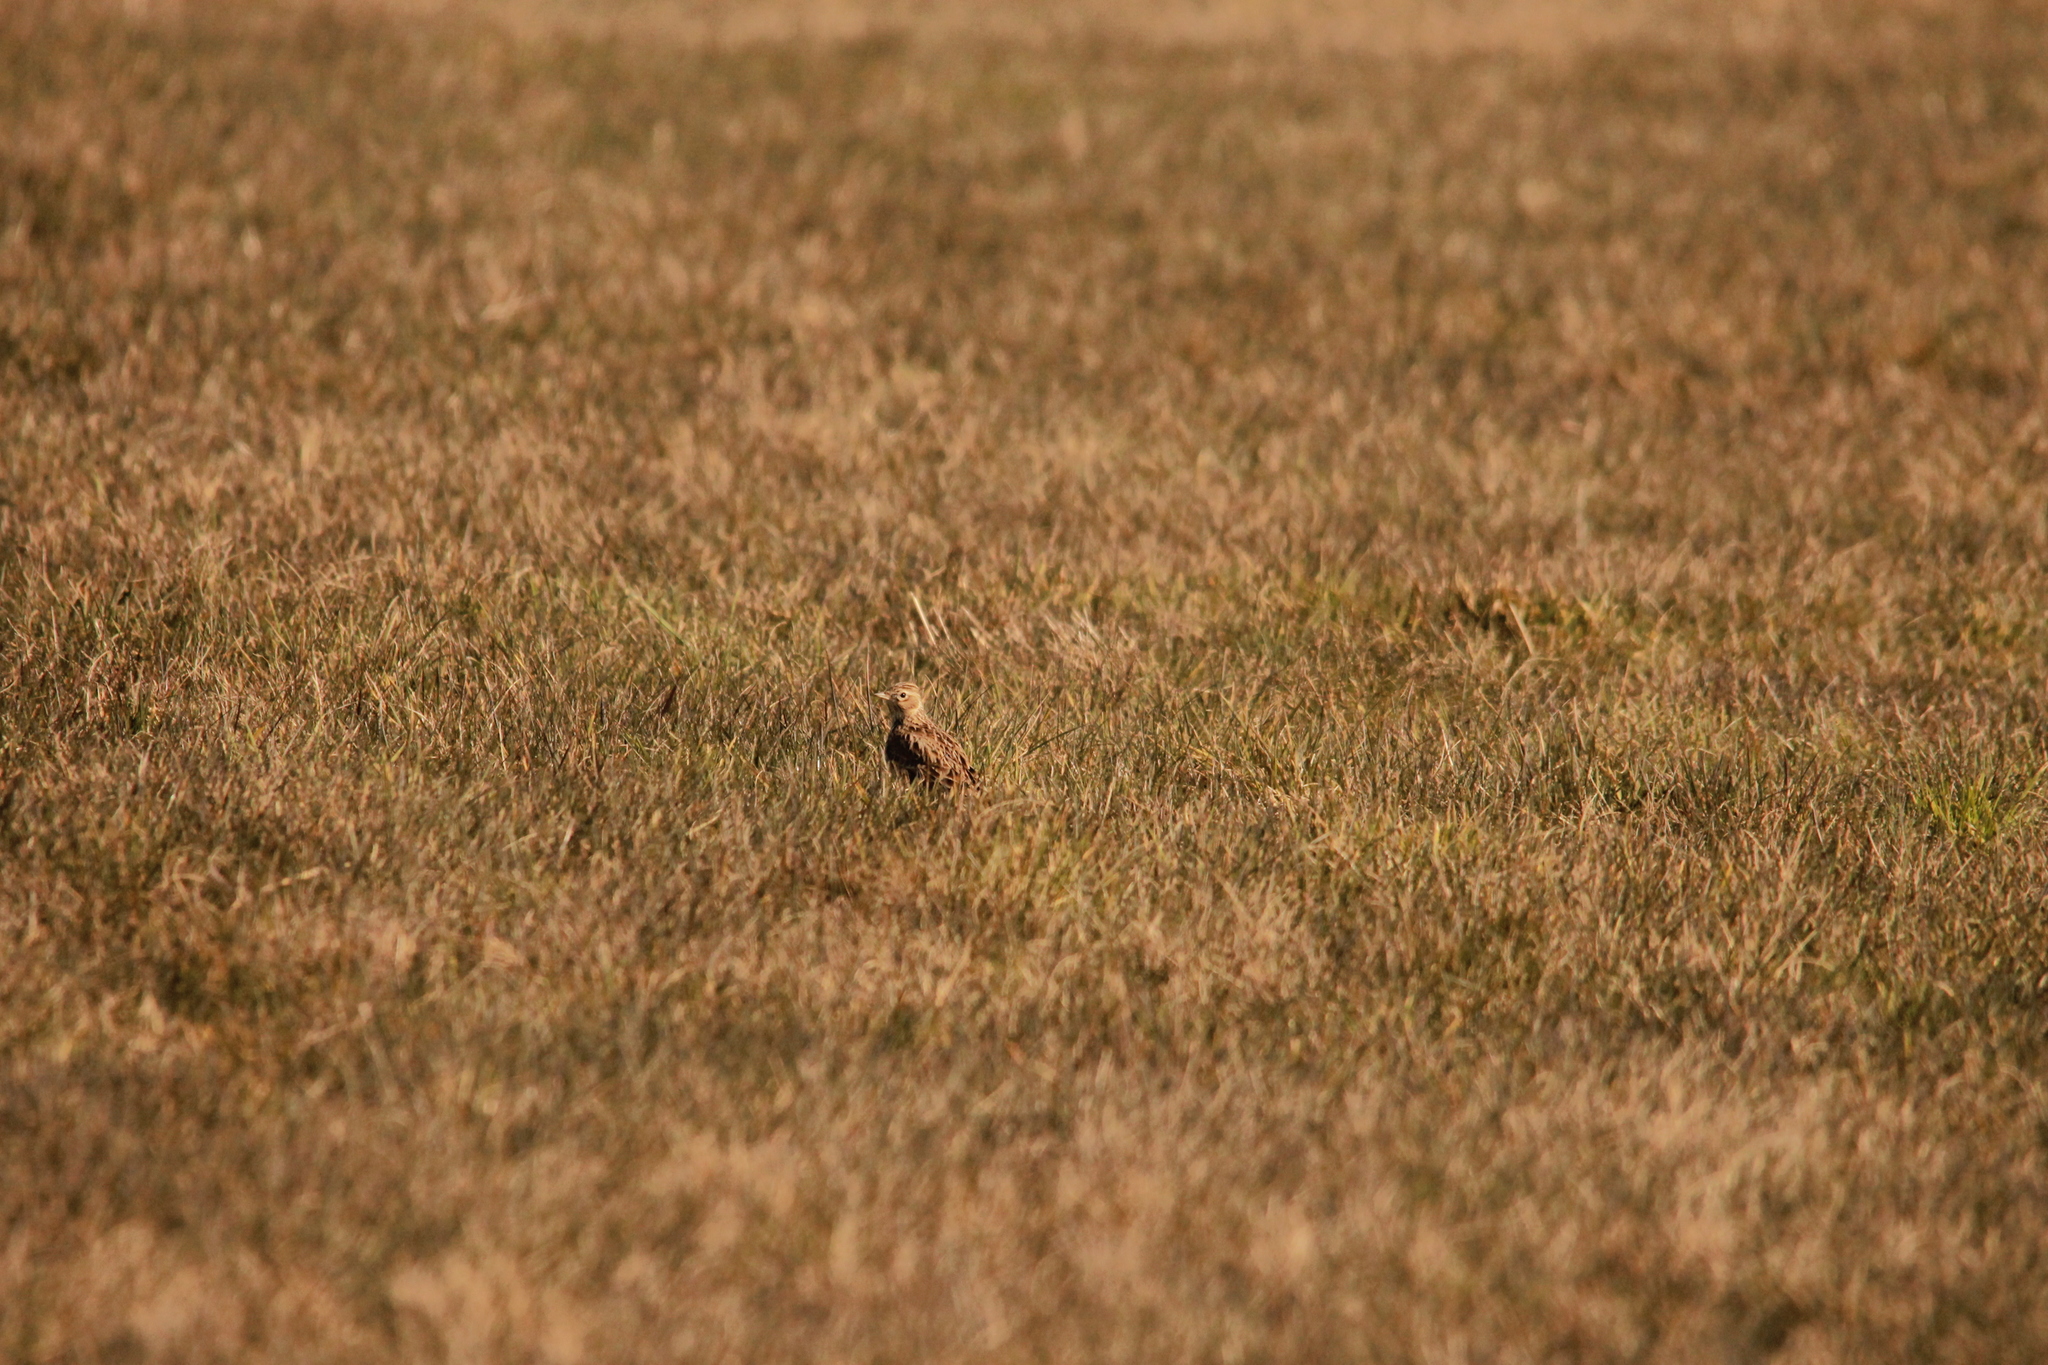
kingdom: Animalia
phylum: Chordata
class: Aves
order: Passeriformes
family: Alaudidae
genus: Alauda
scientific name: Alauda arvensis
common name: Eurasian skylark
